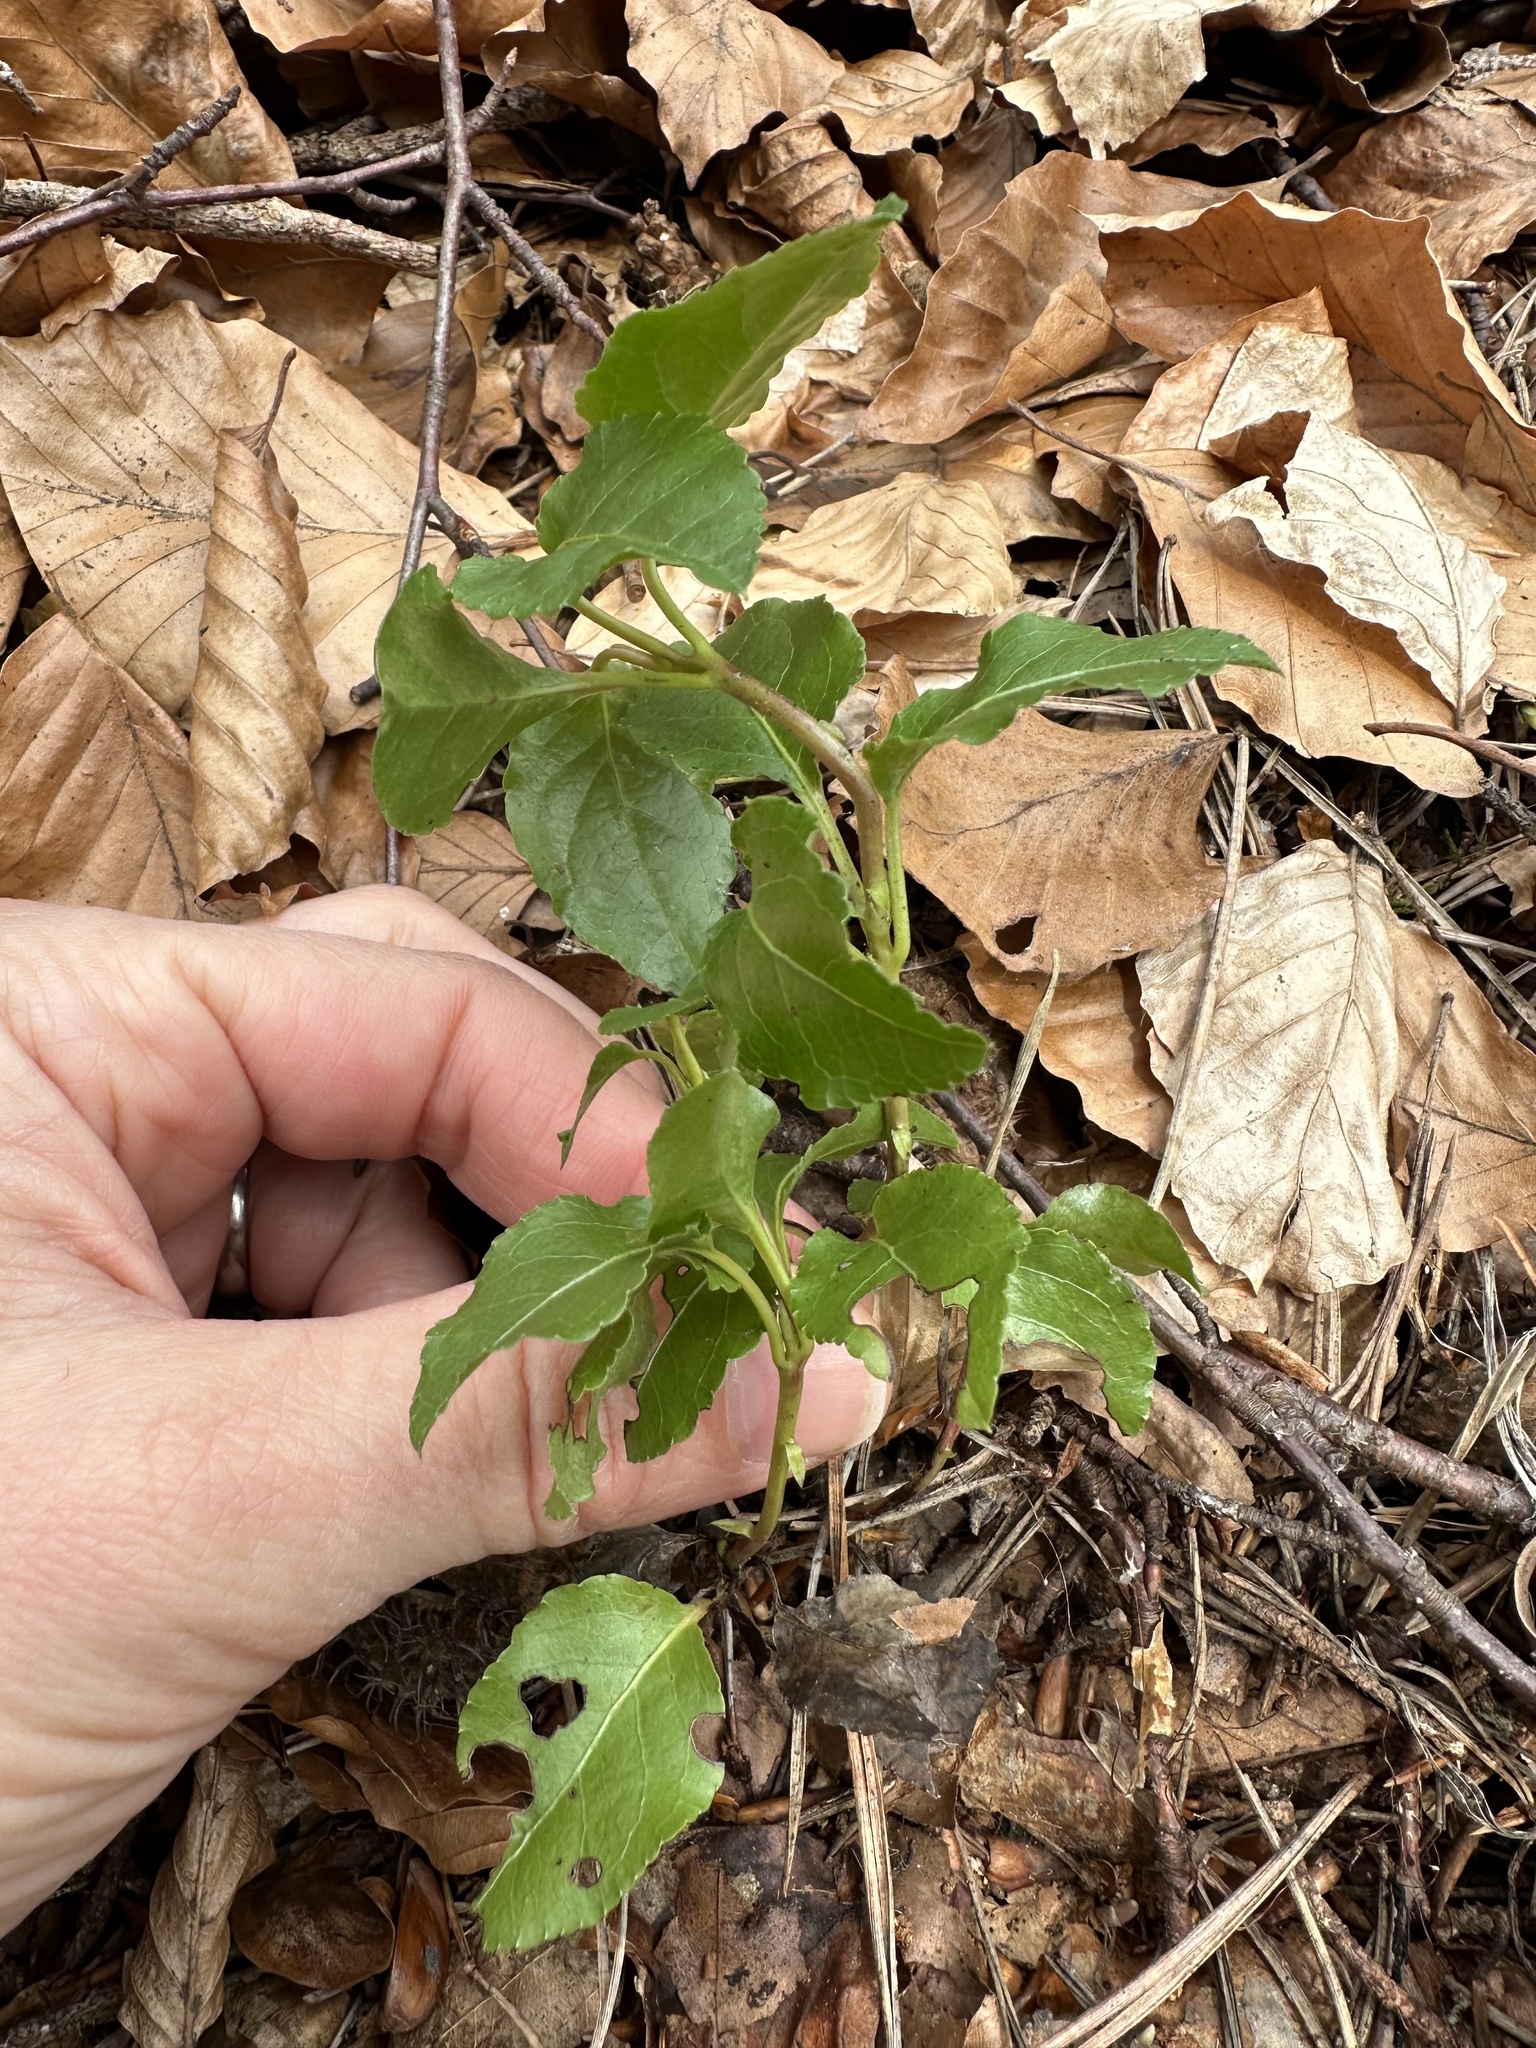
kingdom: Plantae
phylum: Tracheophyta
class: Magnoliopsida
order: Ericales
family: Ericaceae
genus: Orthilia
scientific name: Orthilia secunda
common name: One-sided orthilia
